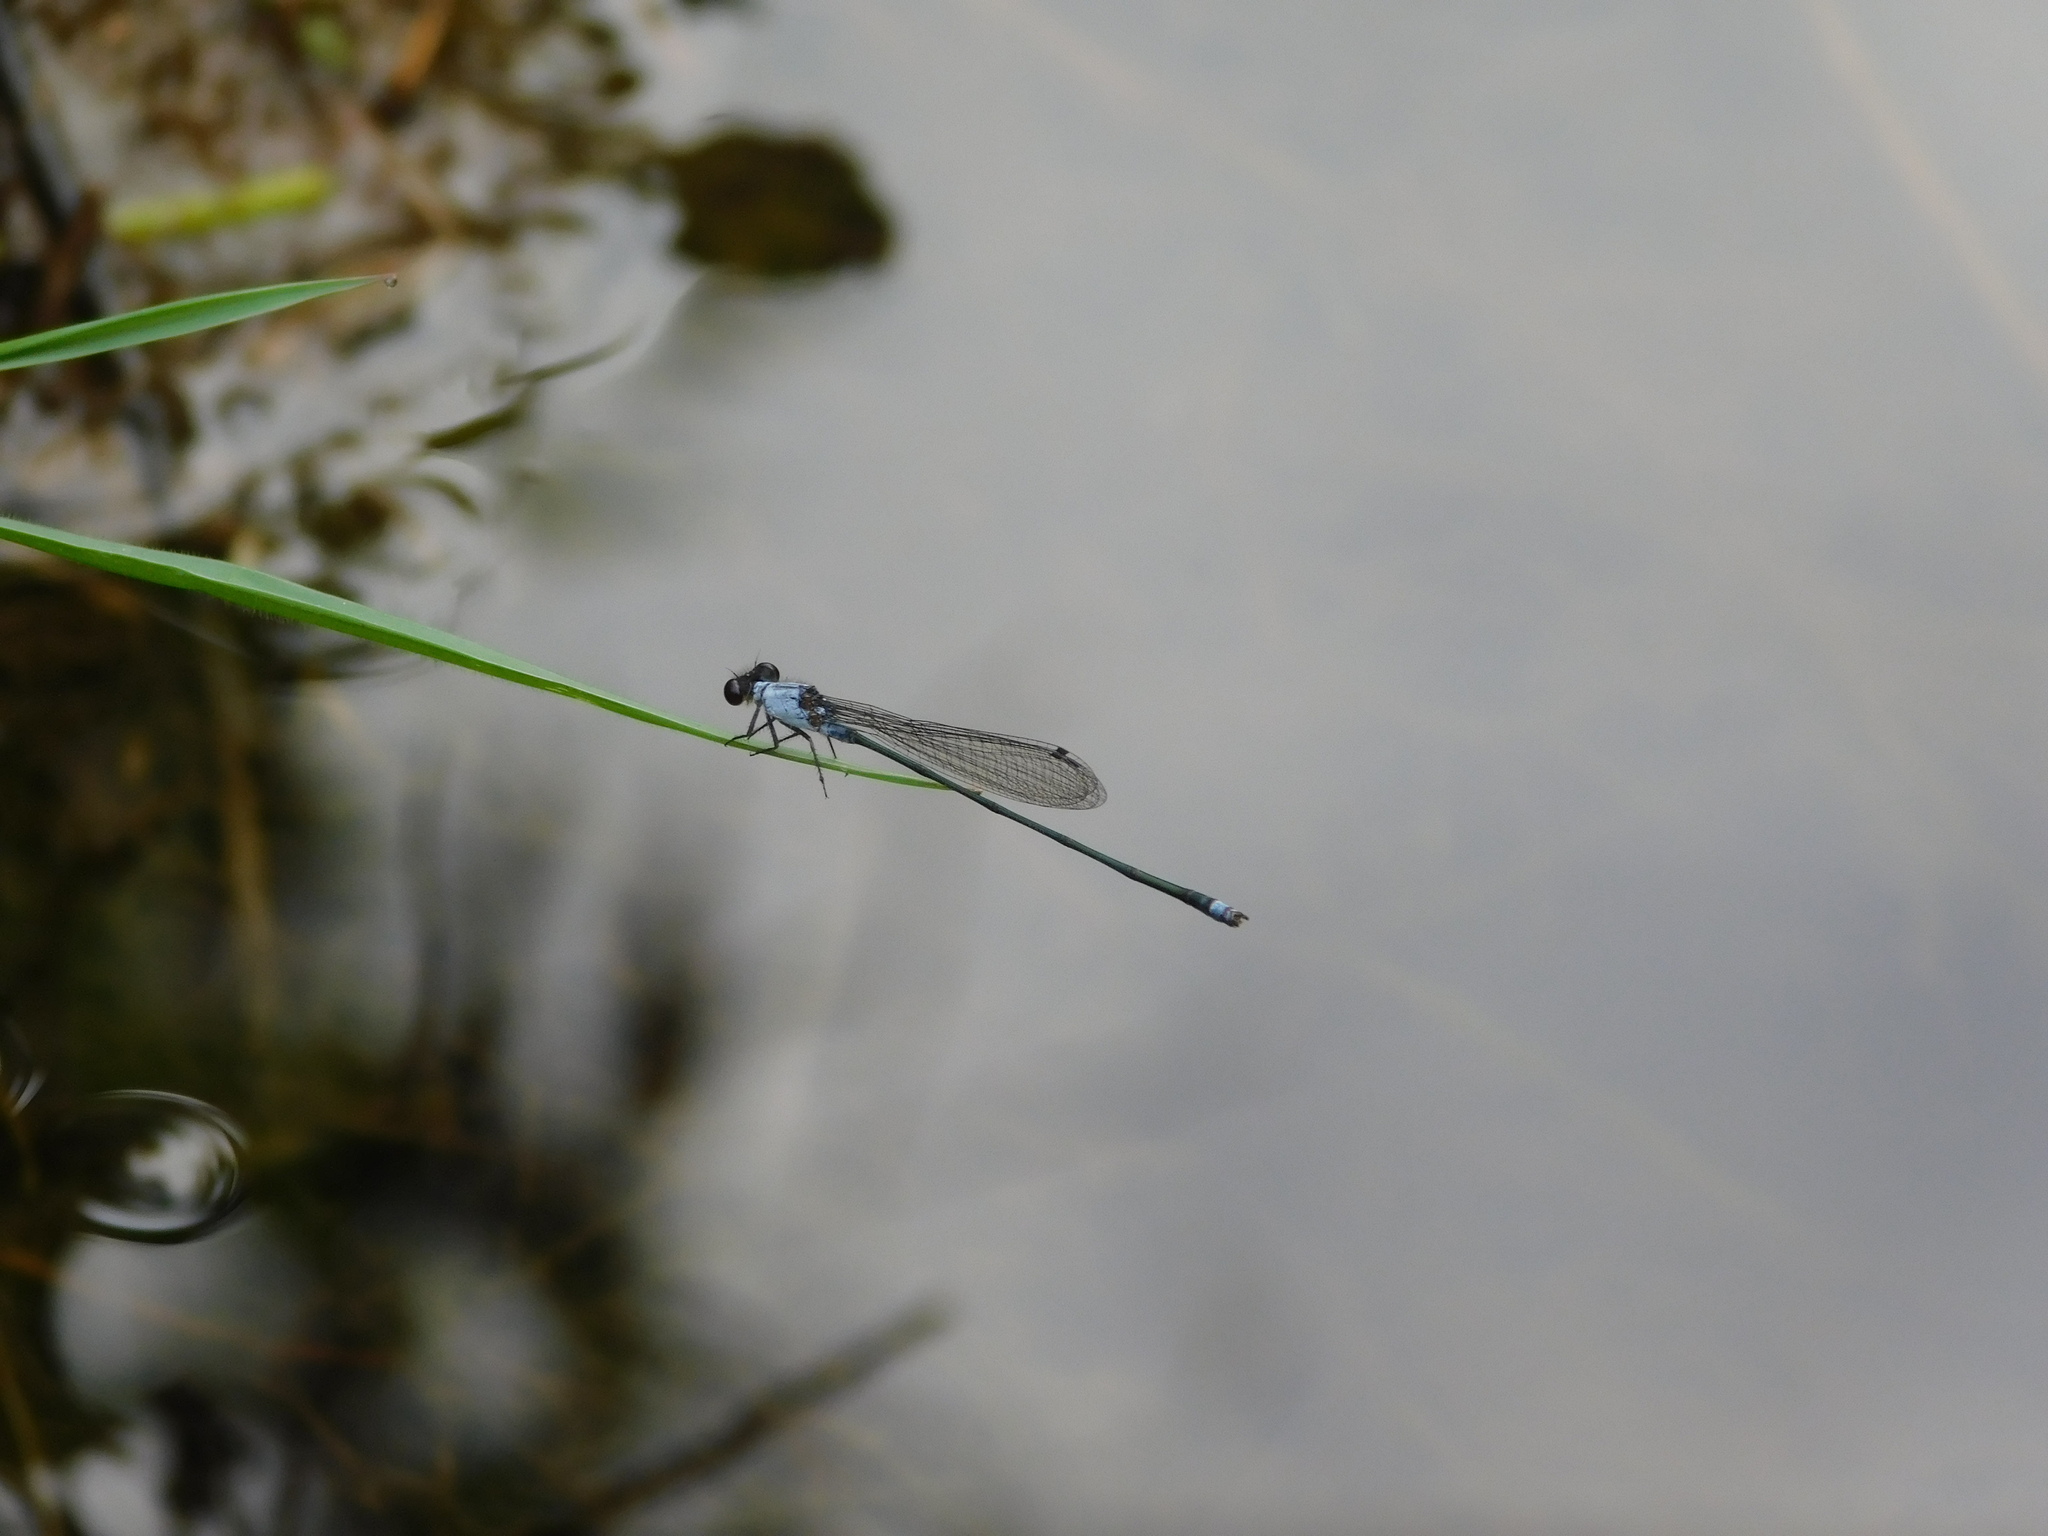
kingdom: Animalia
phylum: Arthropoda
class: Insecta
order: Odonata
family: Coenagrionidae
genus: Pseudagrion
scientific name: Pseudagrion pruinosum
